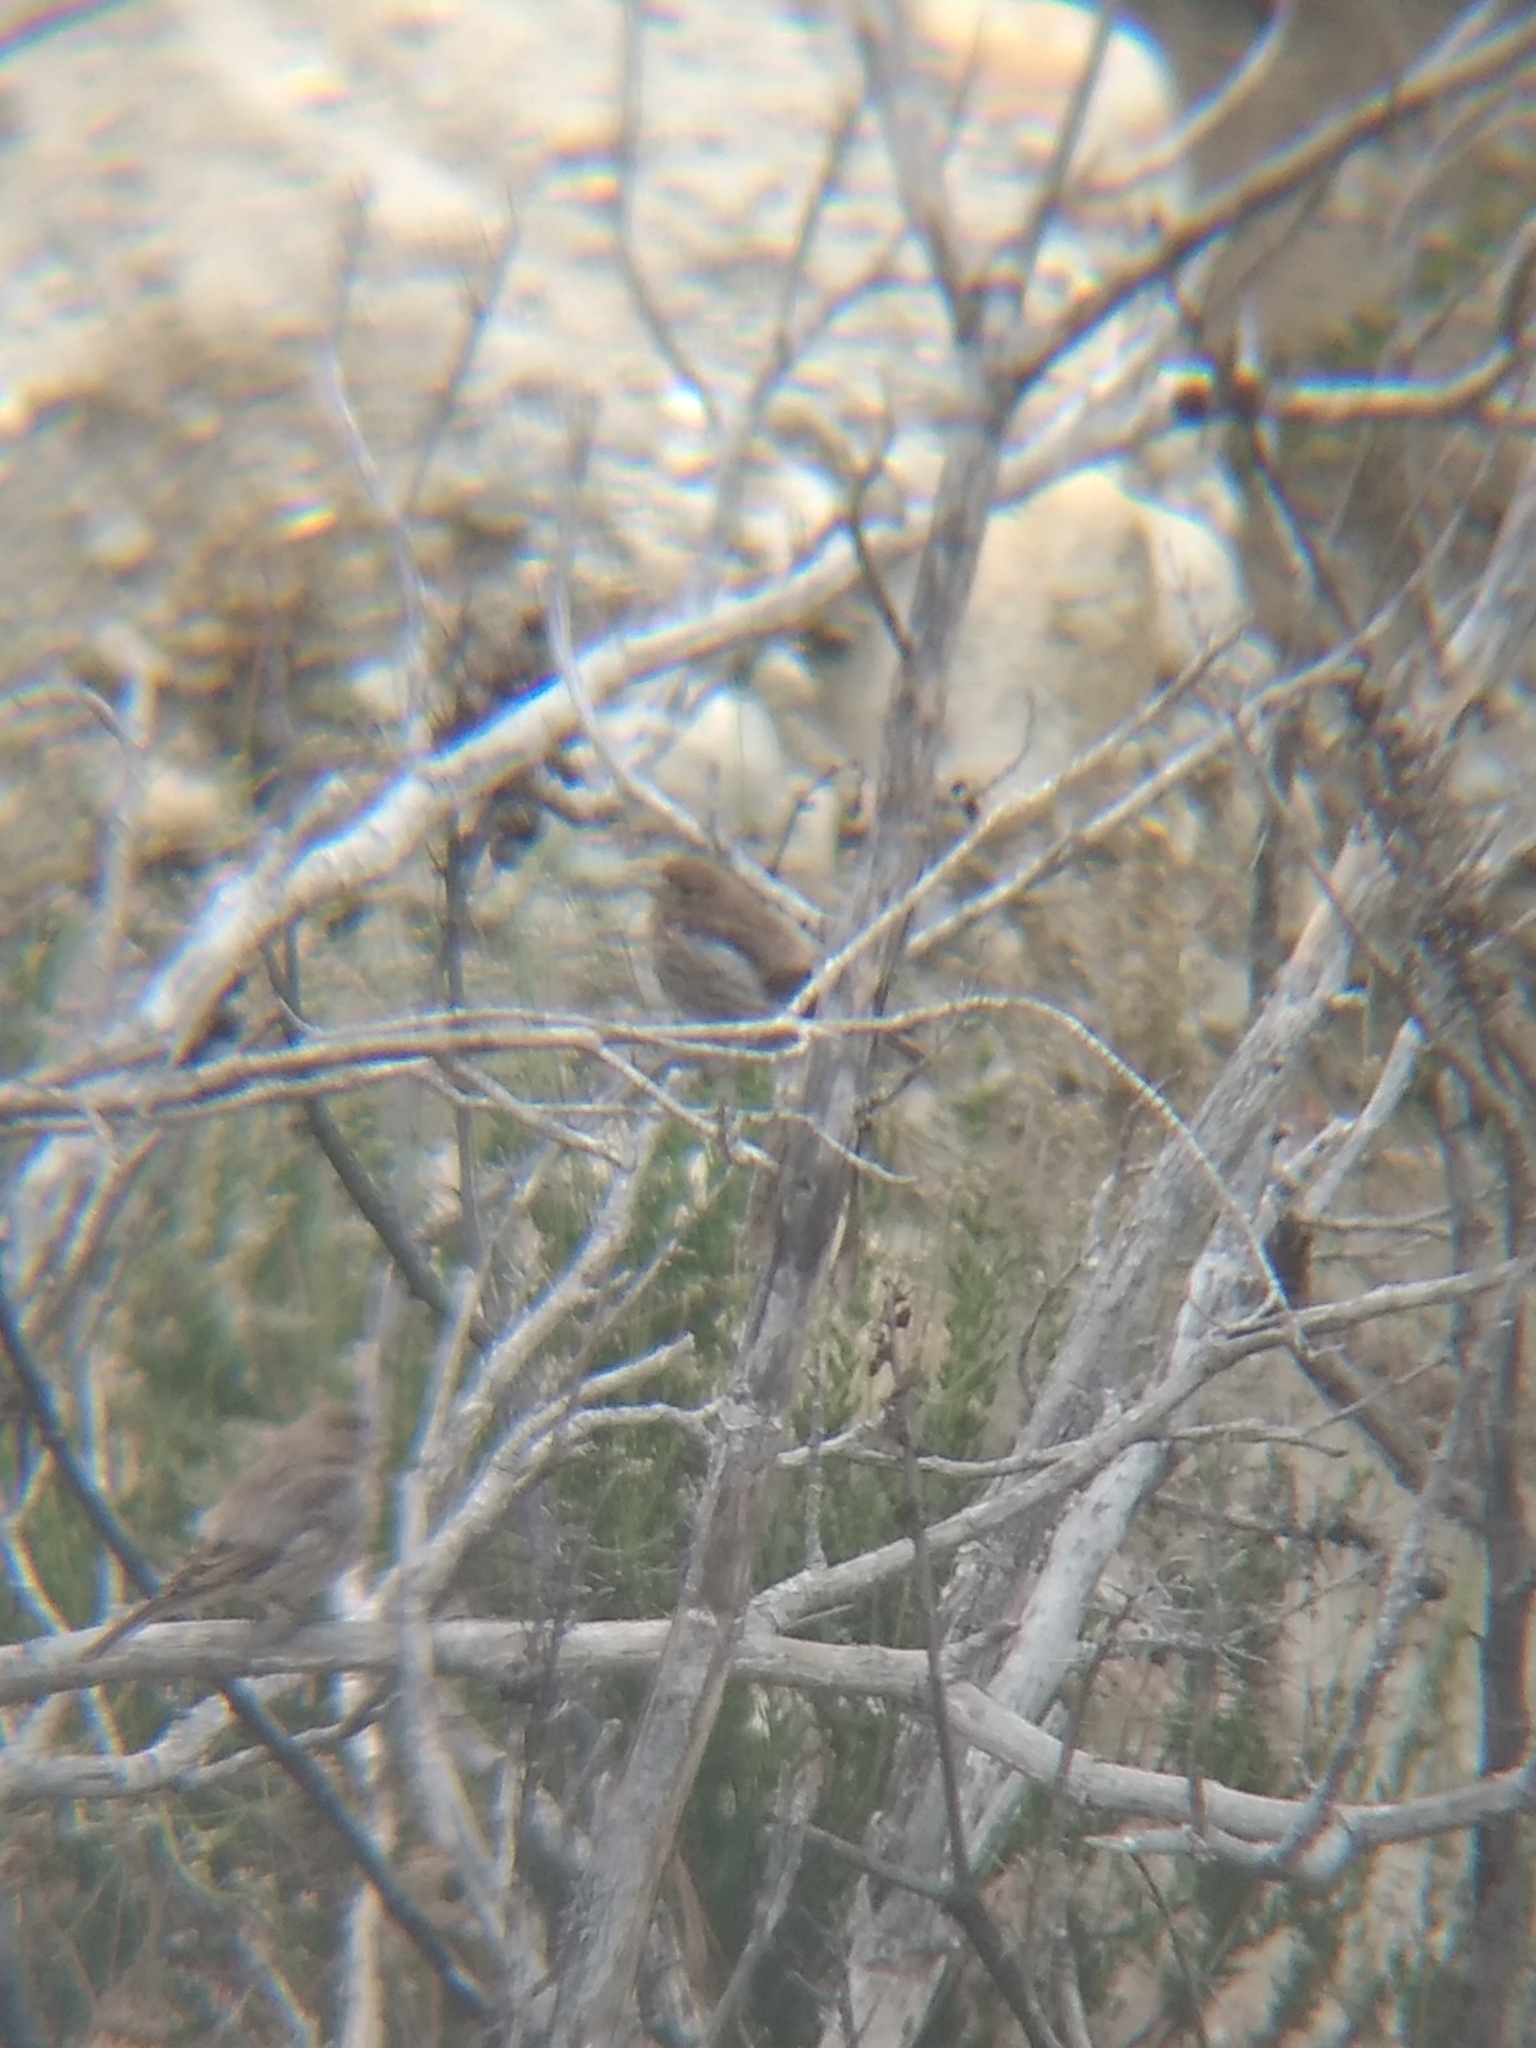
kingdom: Animalia
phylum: Chordata
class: Aves
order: Passeriformes
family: Fringillidae
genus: Haemorhous
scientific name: Haemorhous mexicanus
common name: House finch
